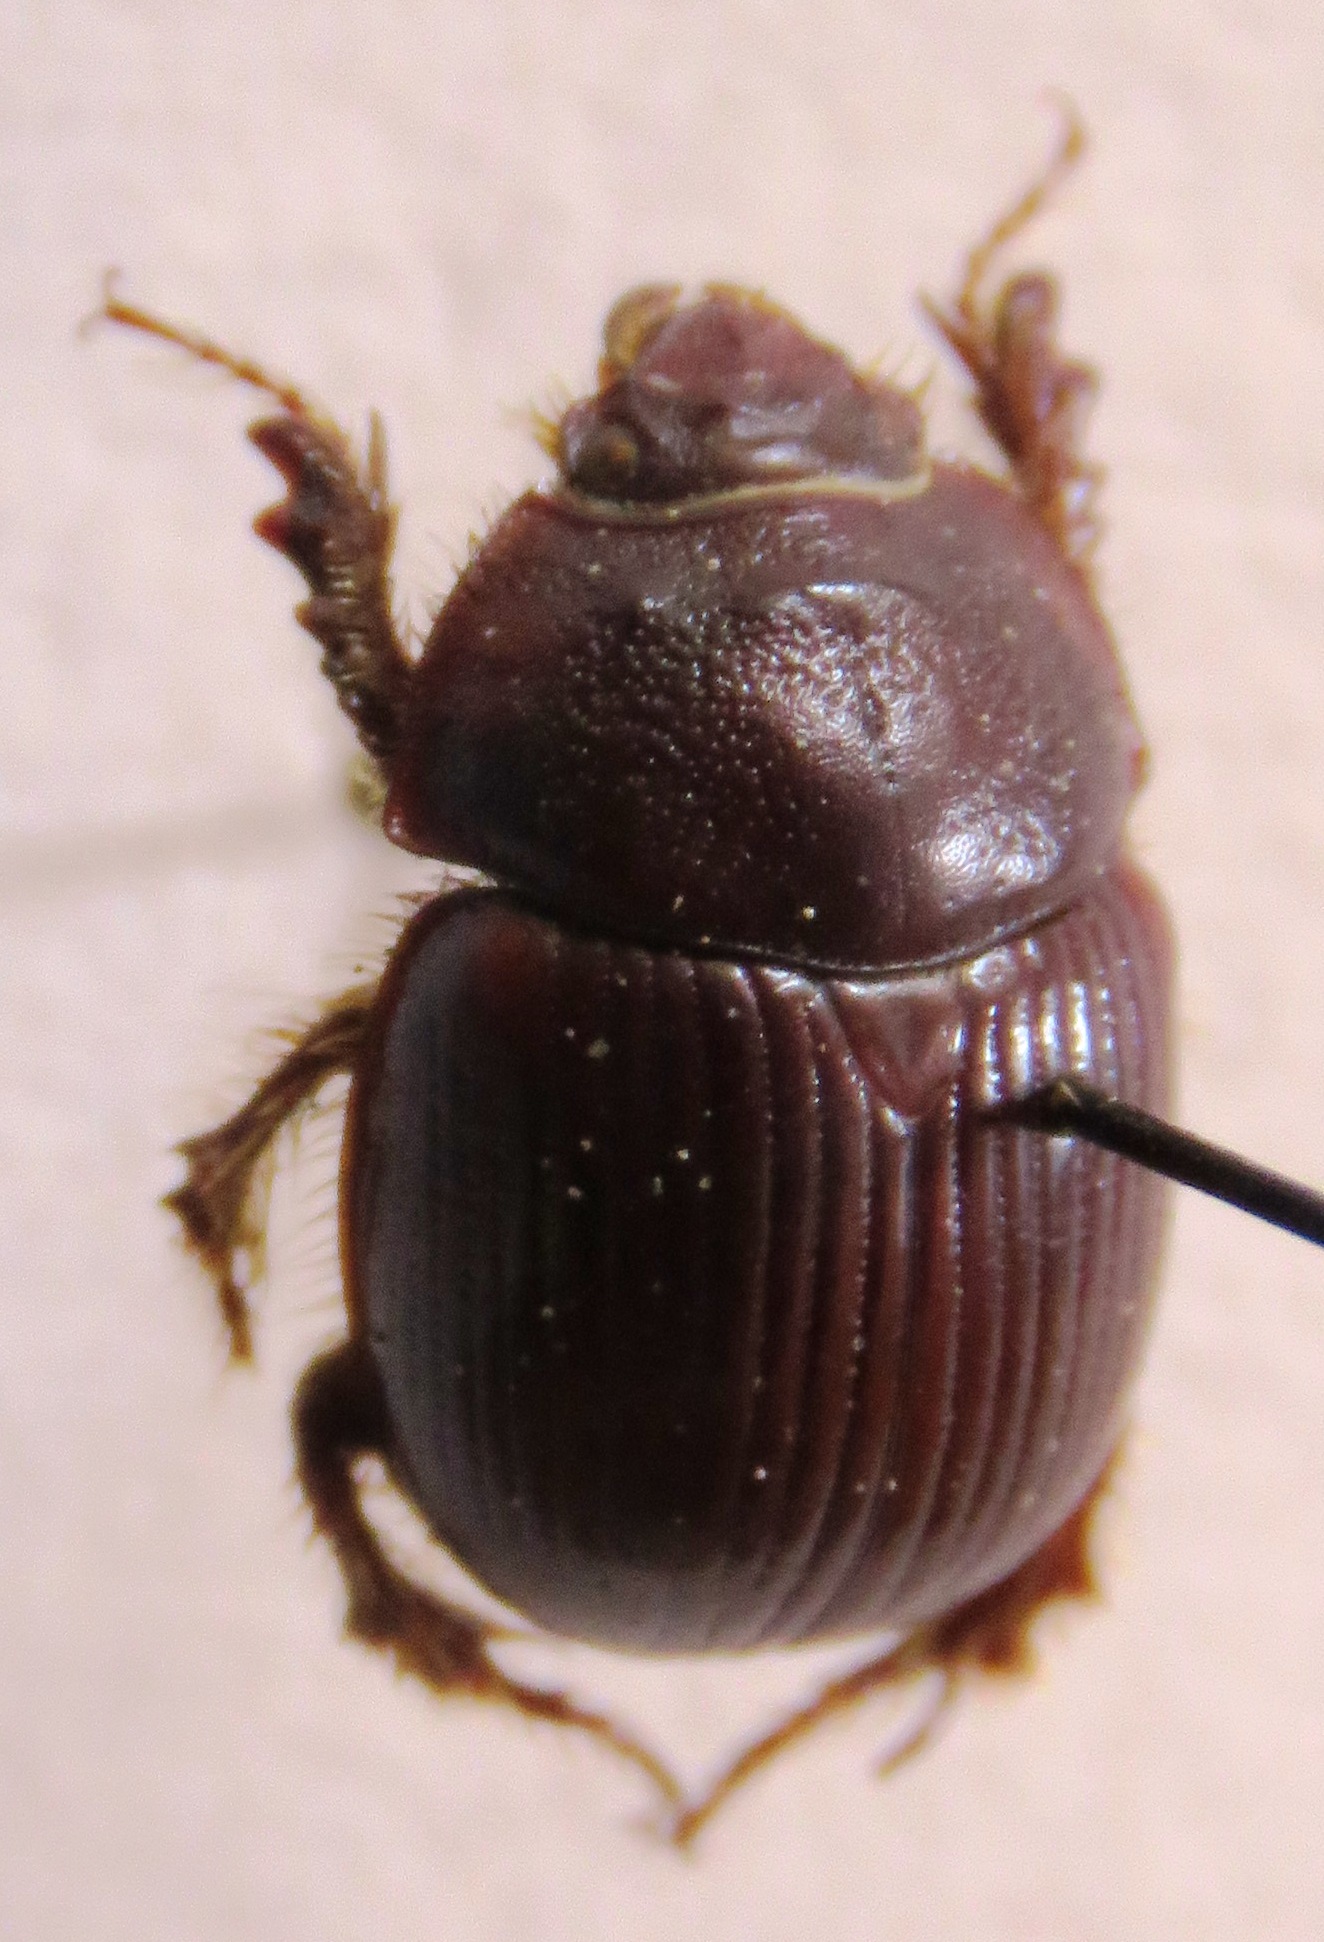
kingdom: Animalia
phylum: Arthropoda
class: Insecta
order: Coleoptera
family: Geotrupidae
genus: Odonteus
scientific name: Odonteus obesus
